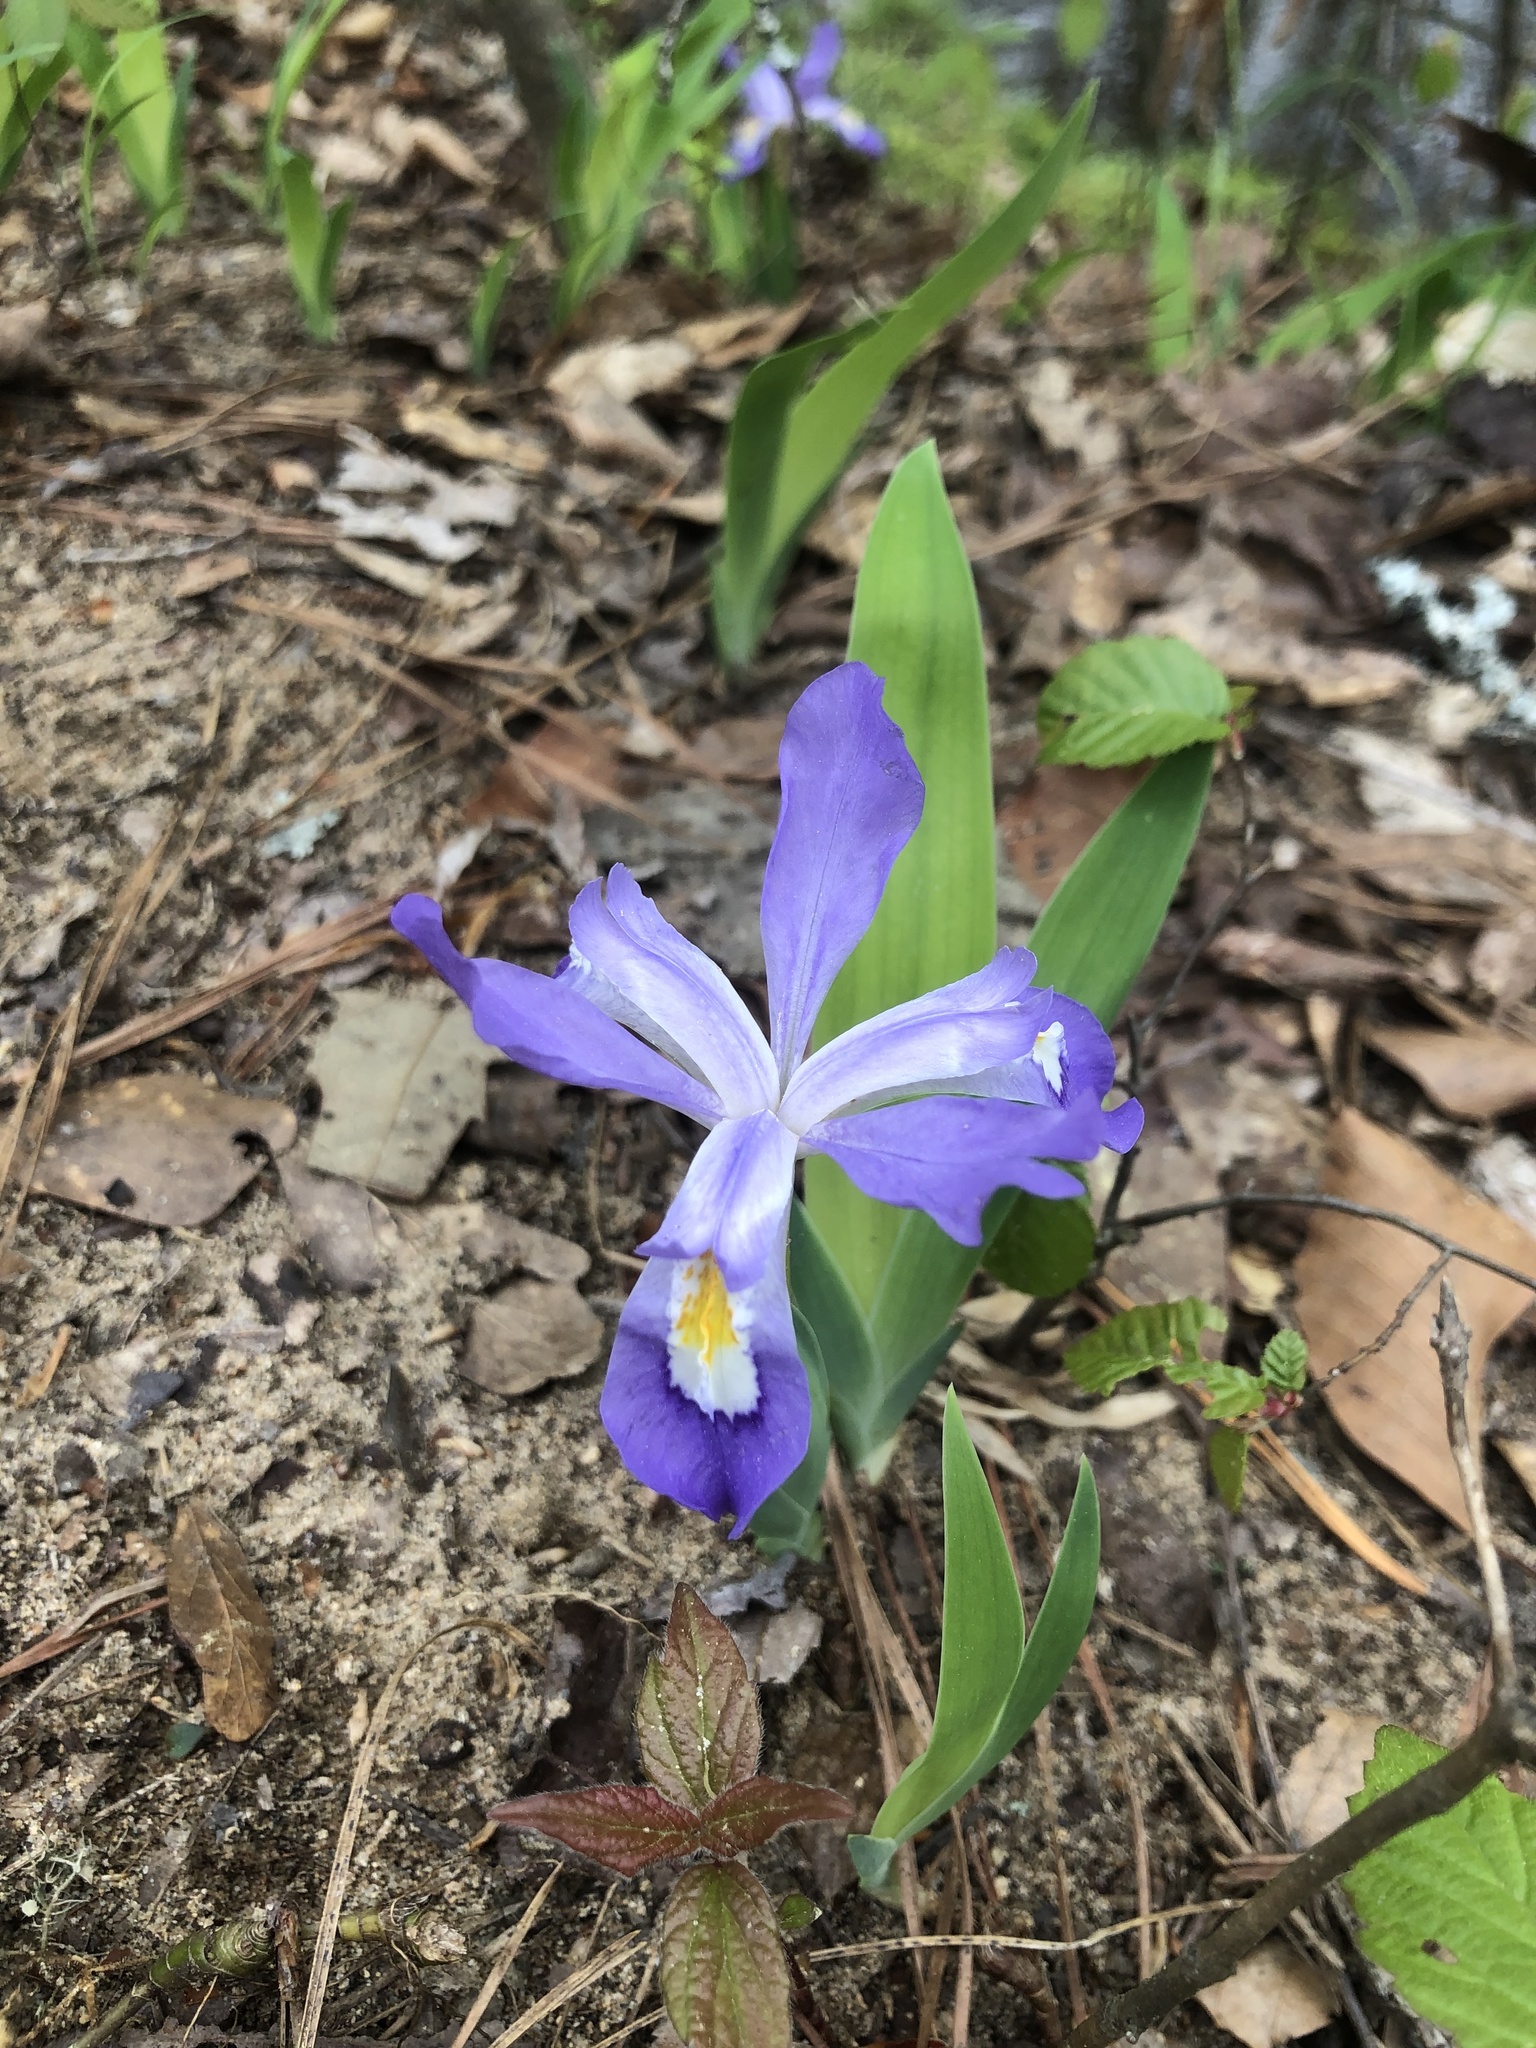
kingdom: Plantae
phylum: Tracheophyta
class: Liliopsida
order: Asparagales
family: Iridaceae
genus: Iris
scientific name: Iris cristata
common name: Crested iris
